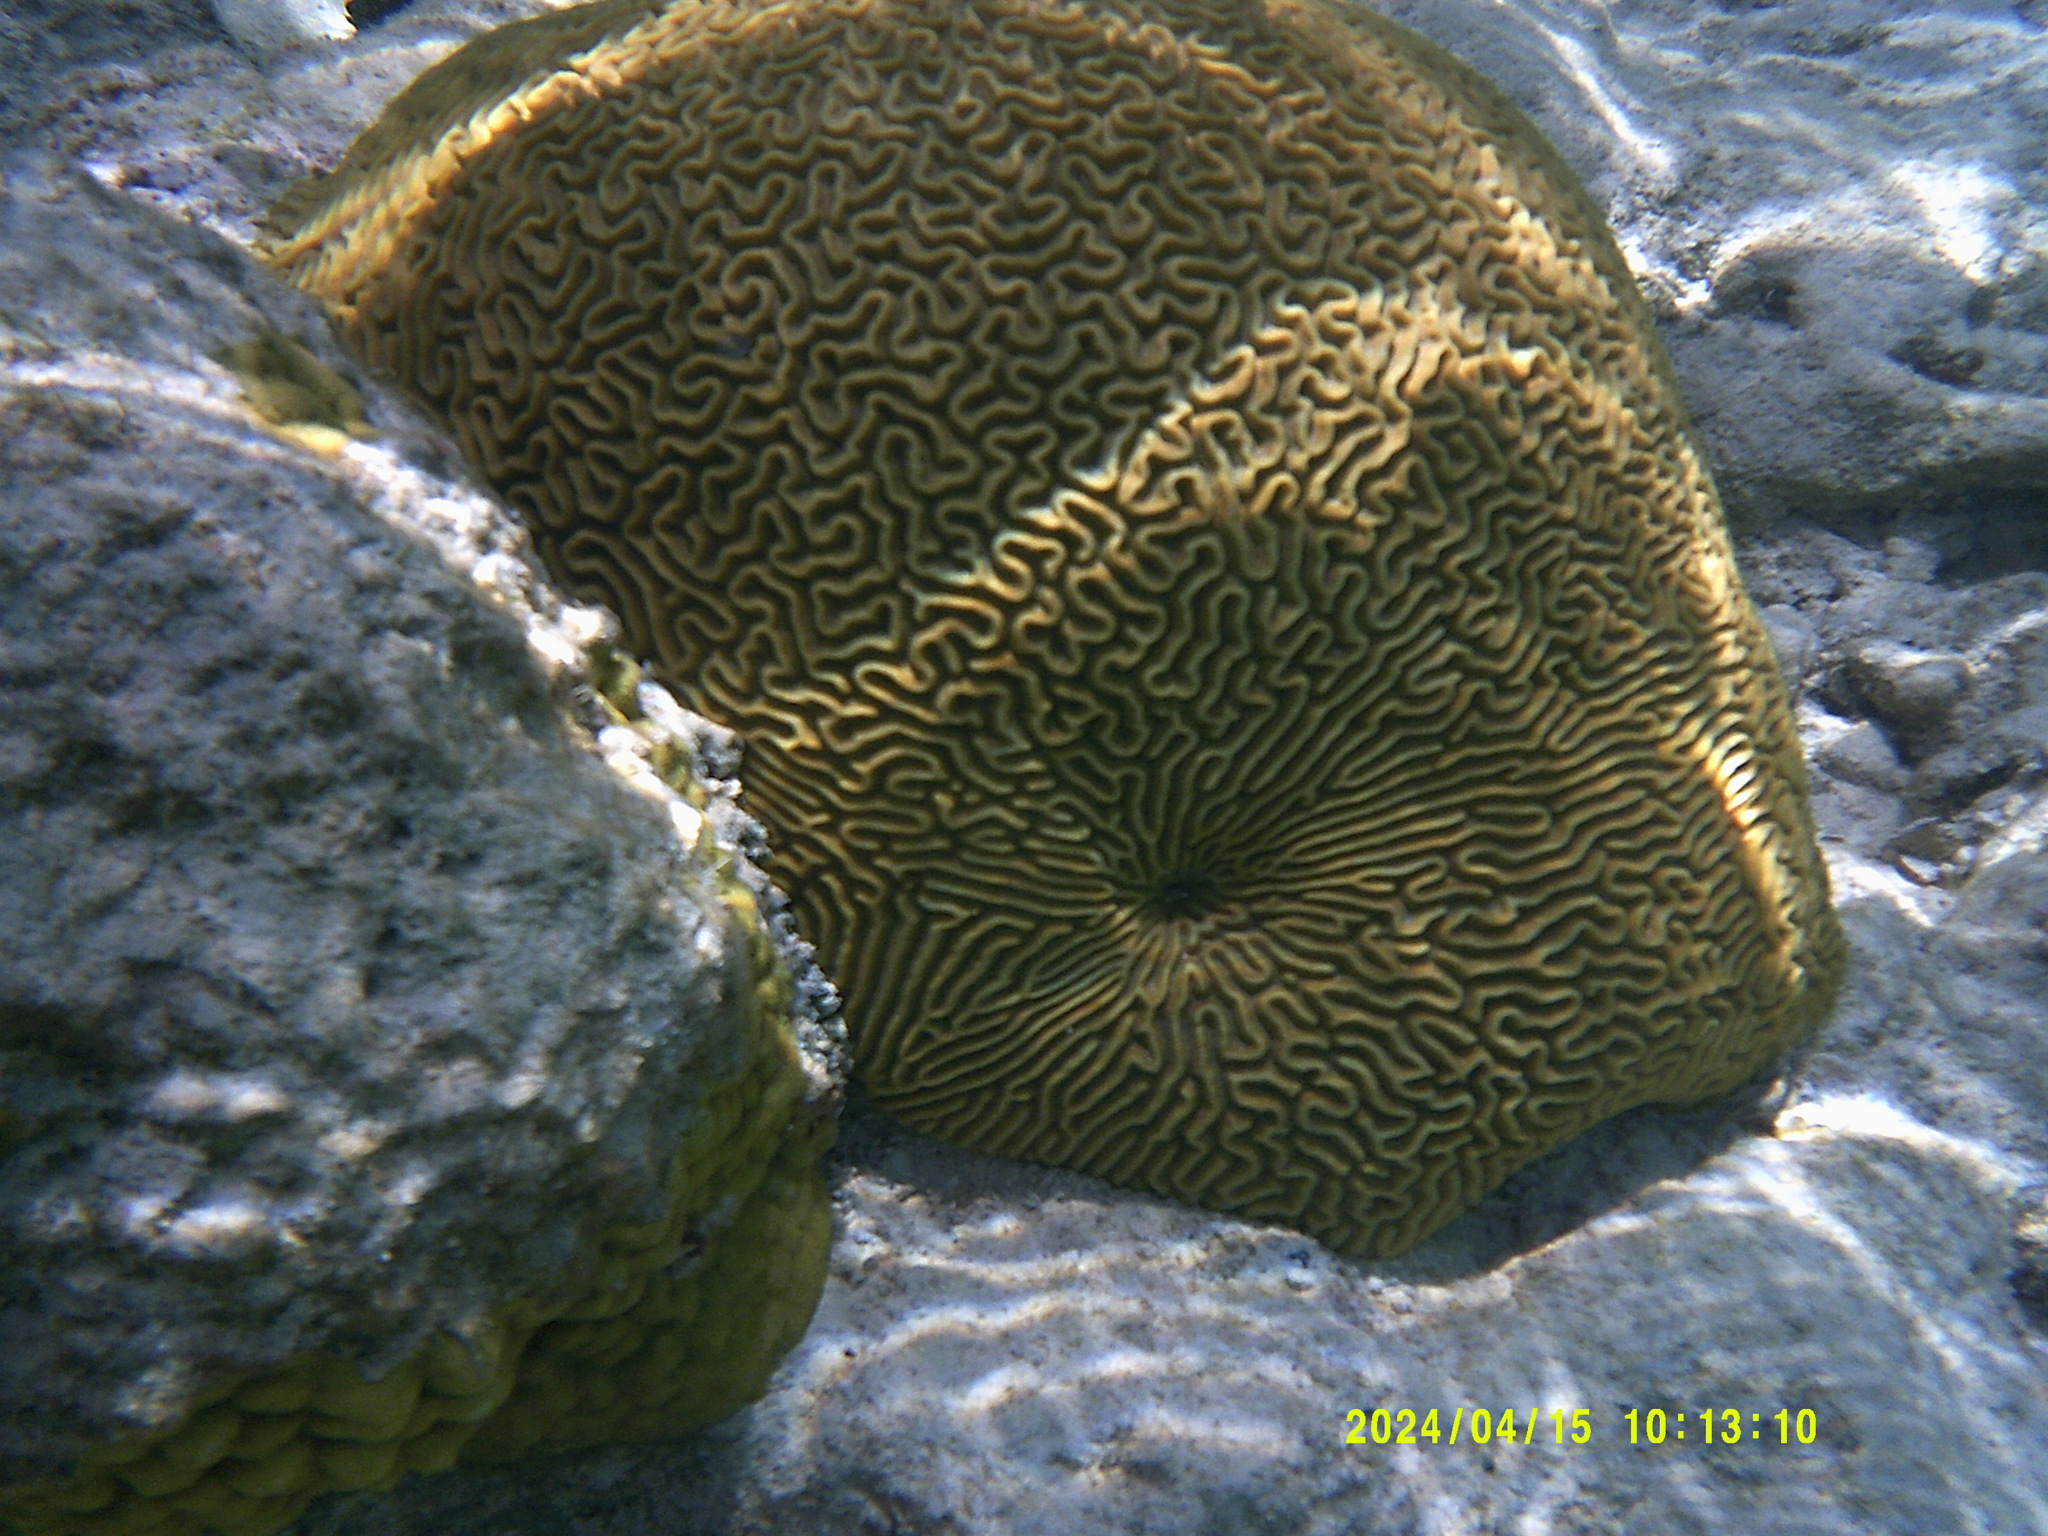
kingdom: Animalia
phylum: Cnidaria
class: Anthozoa
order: Scleractinia
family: Faviidae
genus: Pseudodiploria
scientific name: Pseudodiploria strigosa
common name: Symmetrical brain coral
